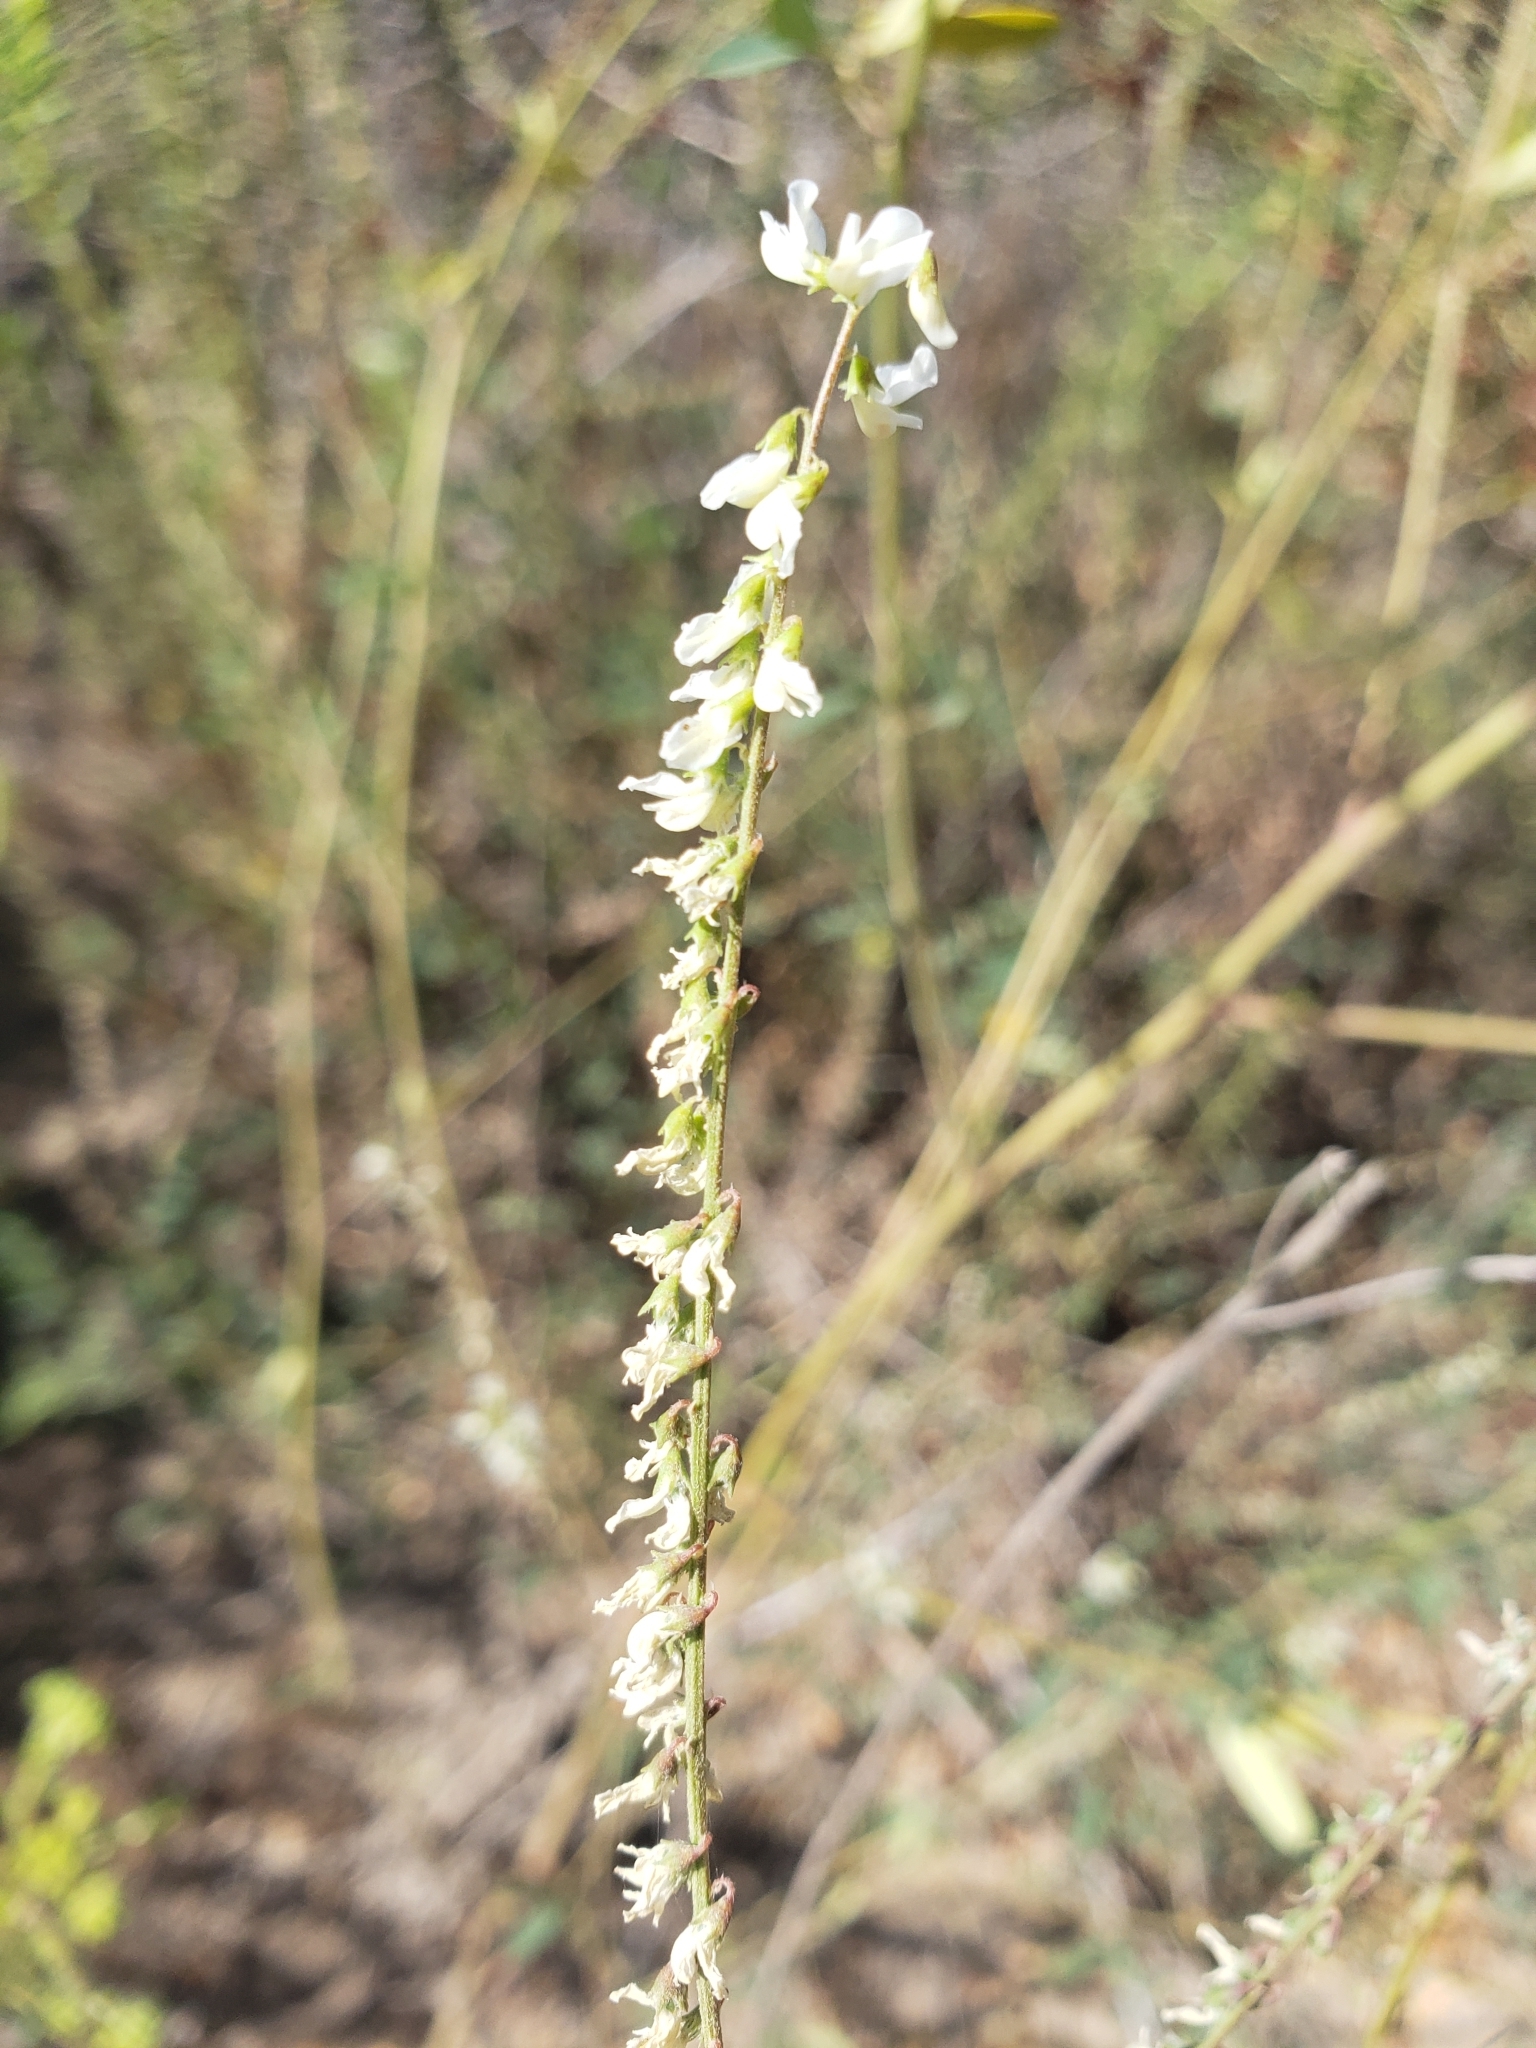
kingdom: Plantae
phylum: Tracheophyta
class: Magnoliopsida
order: Fabales
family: Fabaceae
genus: Melilotus
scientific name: Melilotus albus
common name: White melilot
